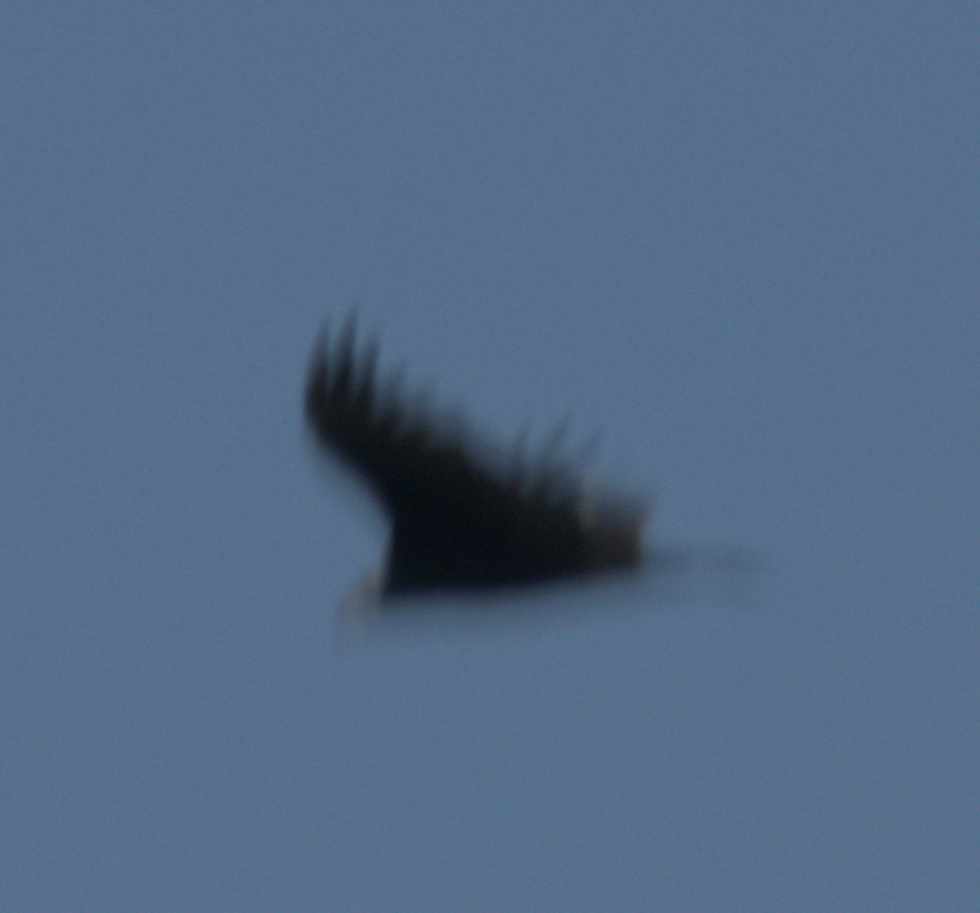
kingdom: Animalia
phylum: Chordata
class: Aves
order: Accipitriformes
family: Cathartidae
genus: Cathartes
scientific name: Cathartes aura
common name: Turkey vulture
